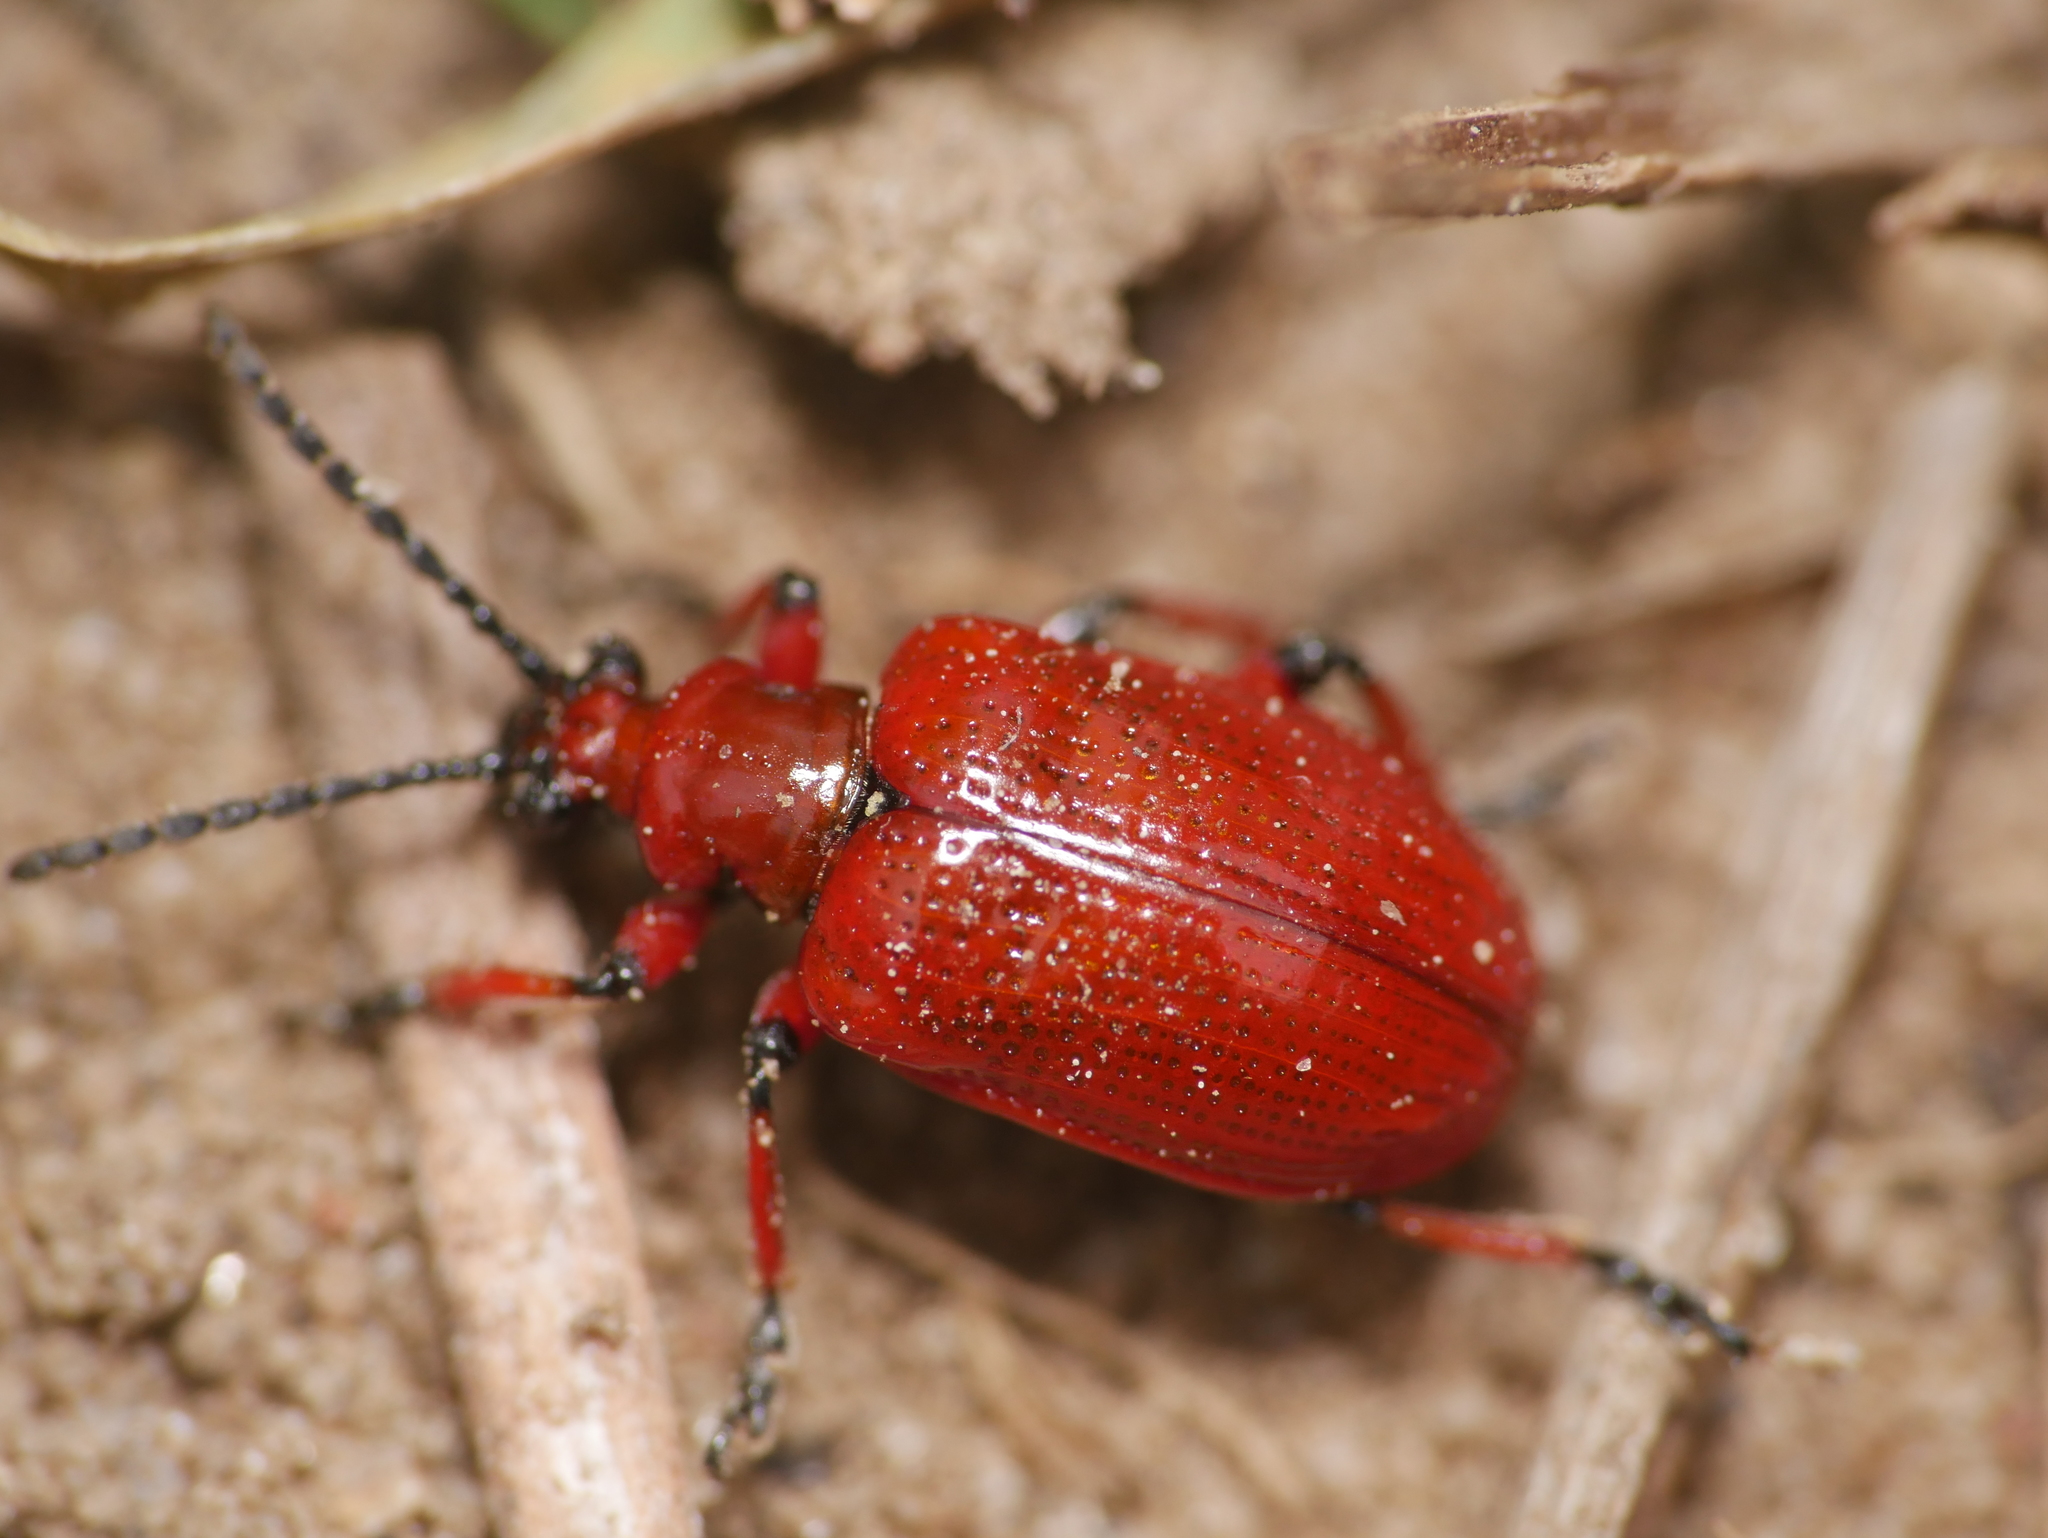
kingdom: Animalia
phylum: Arthropoda
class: Insecta
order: Coleoptera
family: Chrysomelidae
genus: Lilioceris
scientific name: Lilioceris merdigera
